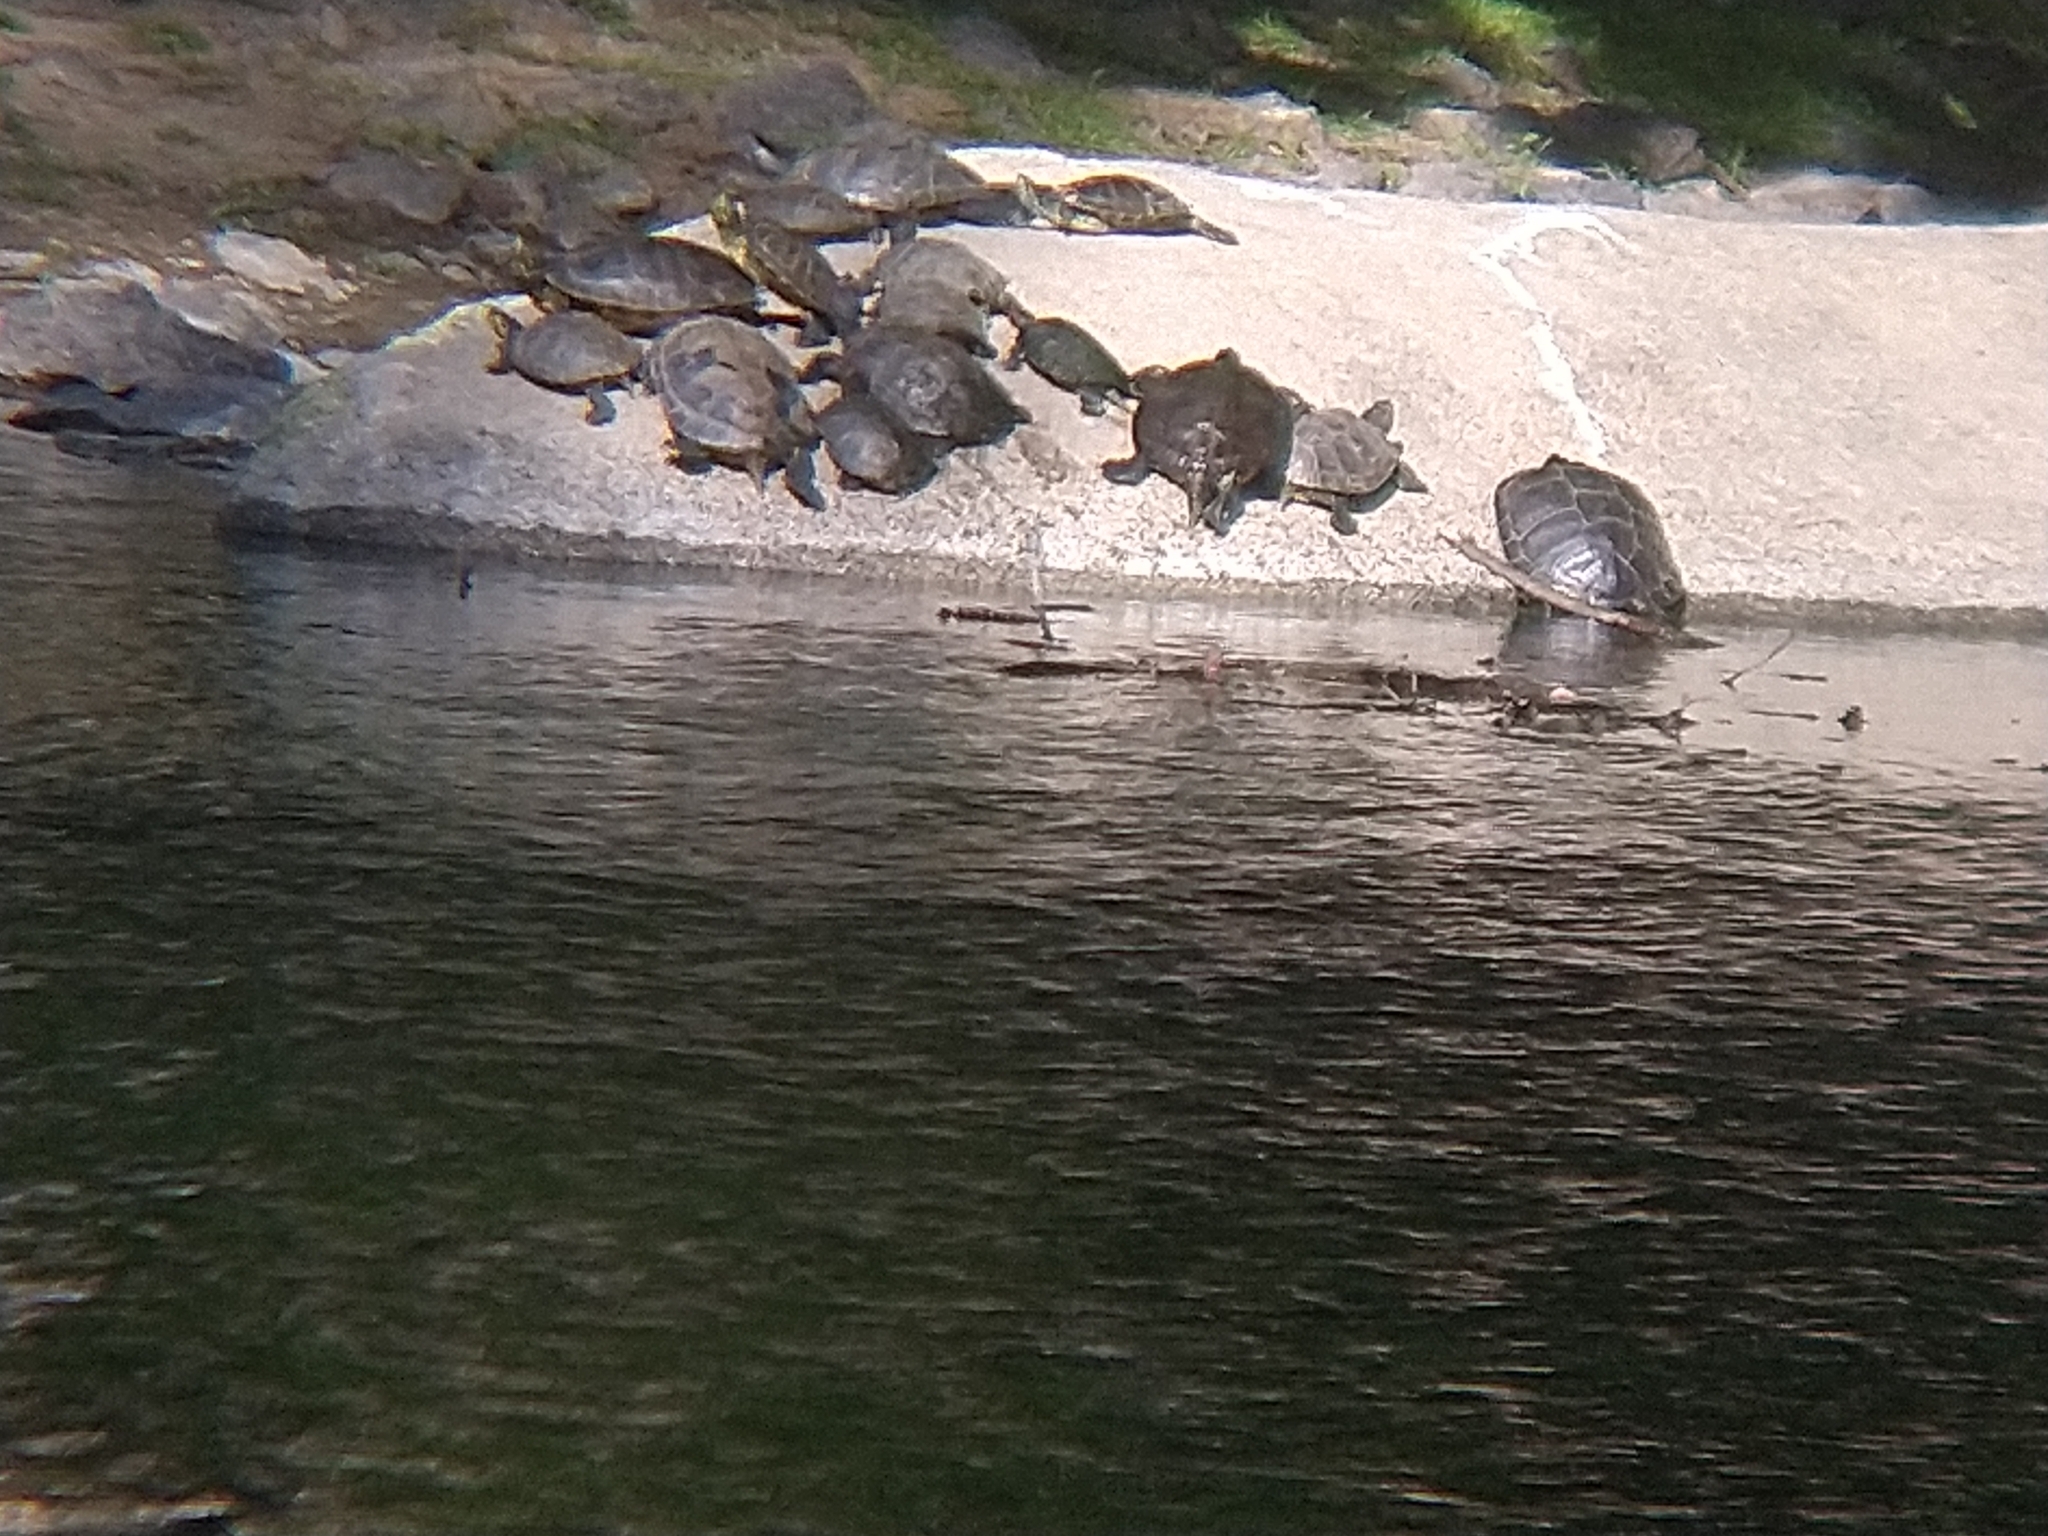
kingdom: Animalia
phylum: Chordata
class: Testudines
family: Emydidae
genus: Trachemys
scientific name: Trachemys scripta
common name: Slider
